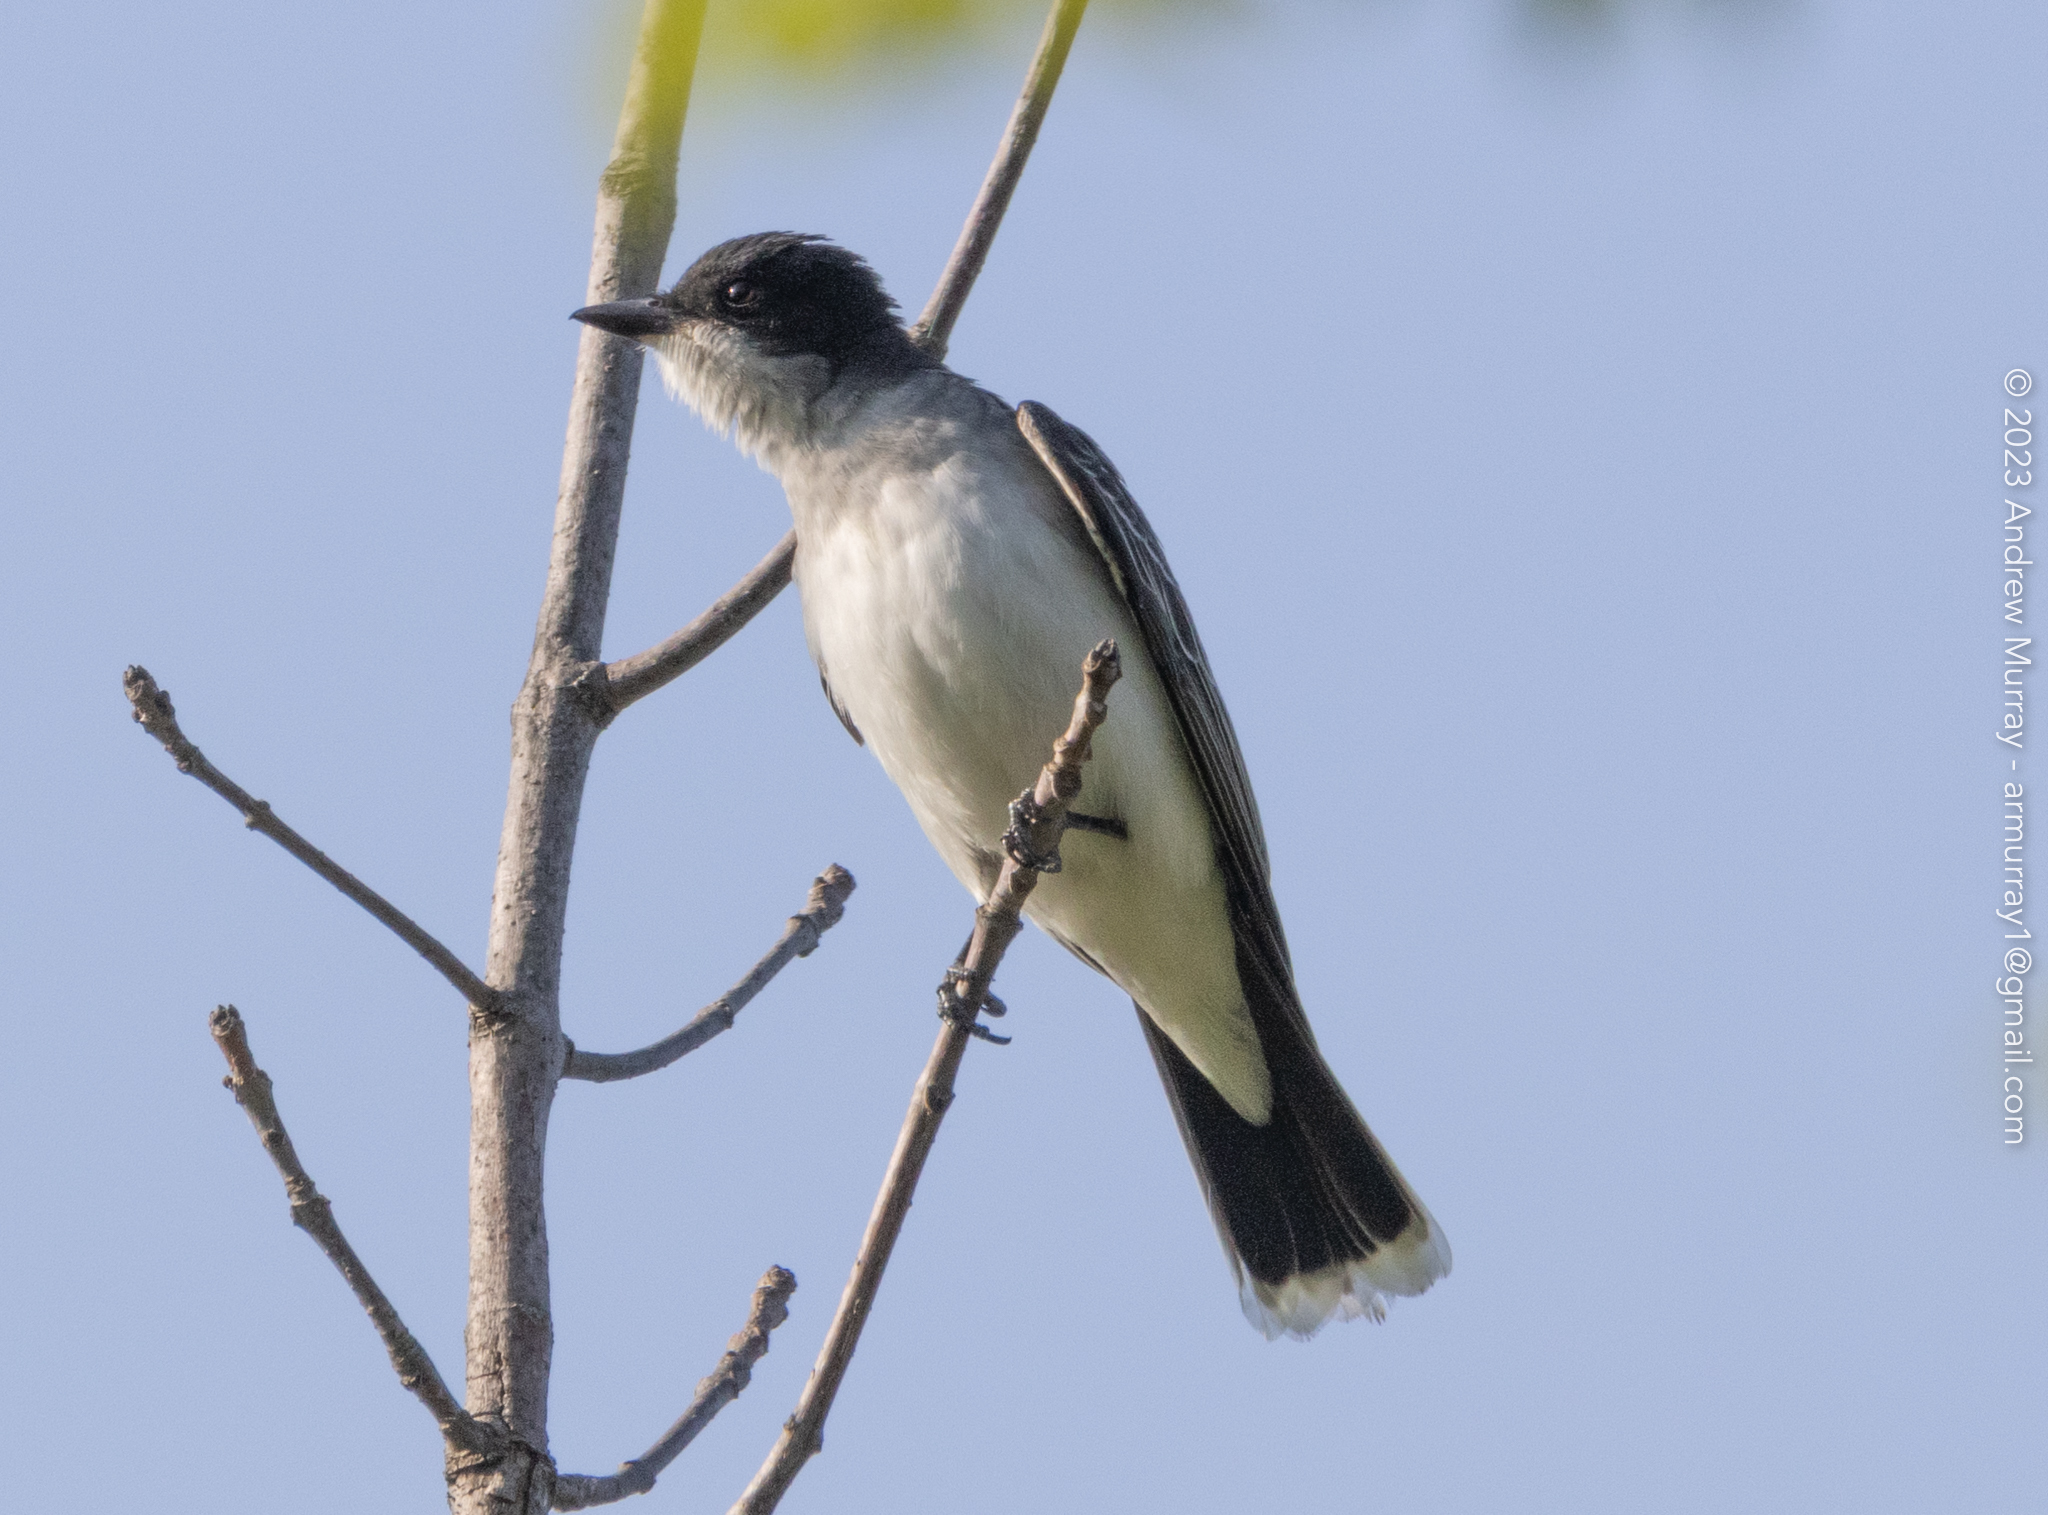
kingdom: Animalia
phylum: Chordata
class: Aves
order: Passeriformes
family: Tyrannidae
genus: Tyrannus
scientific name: Tyrannus tyrannus
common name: Eastern kingbird
